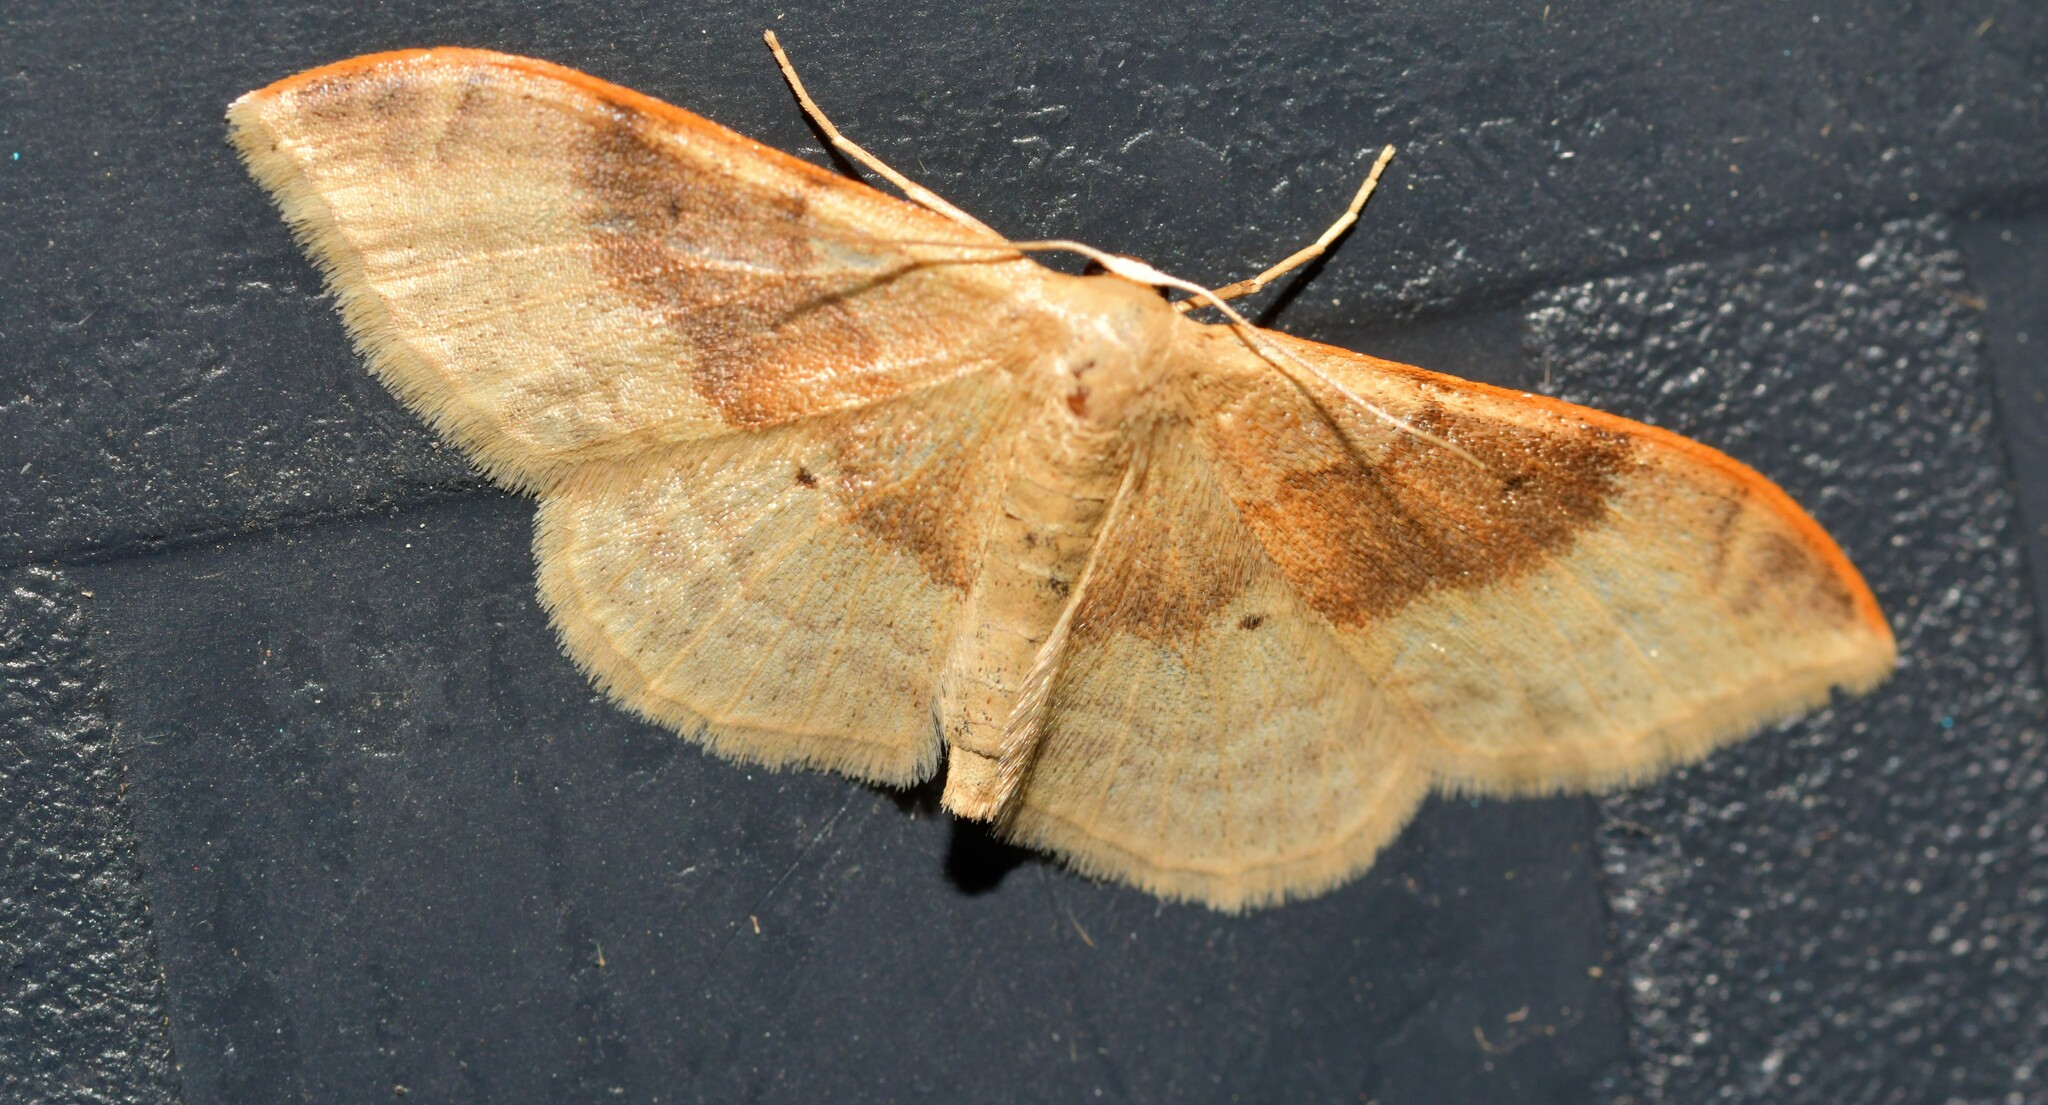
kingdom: Animalia
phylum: Arthropoda
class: Insecta
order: Lepidoptera
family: Geometridae
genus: Idaea
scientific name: Idaea degeneraria
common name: Portland ribbon wave
